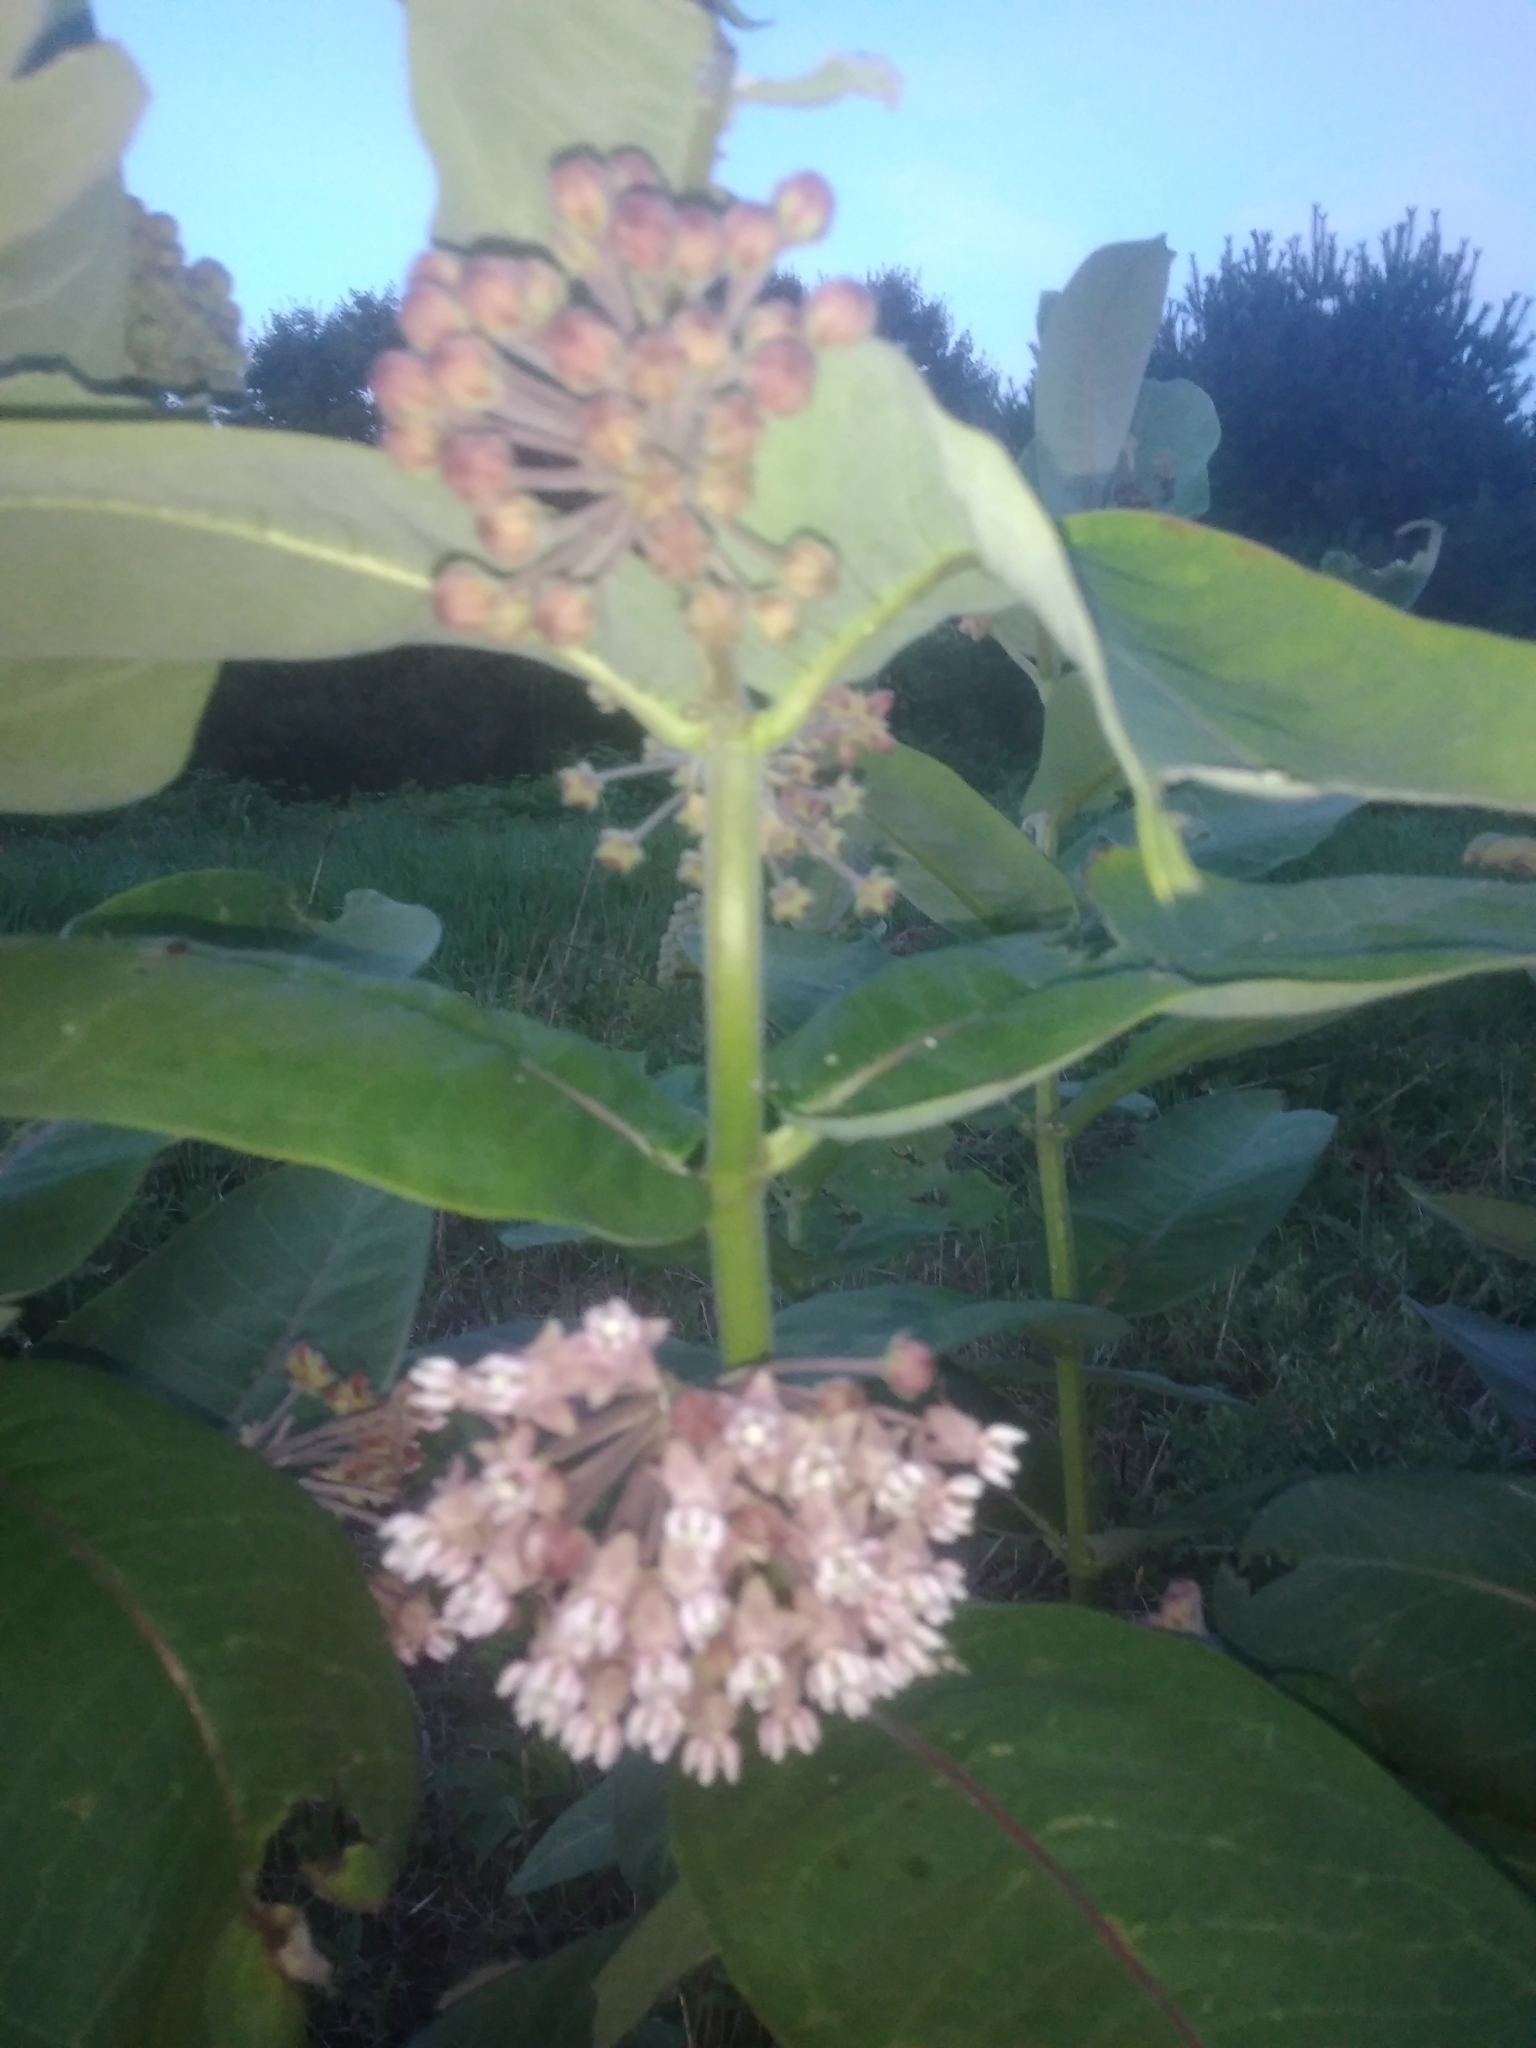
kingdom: Plantae
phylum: Tracheophyta
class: Magnoliopsida
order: Gentianales
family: Apocynaceae
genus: Asclepias
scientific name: Asclepias syriaca
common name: Common milkweed
